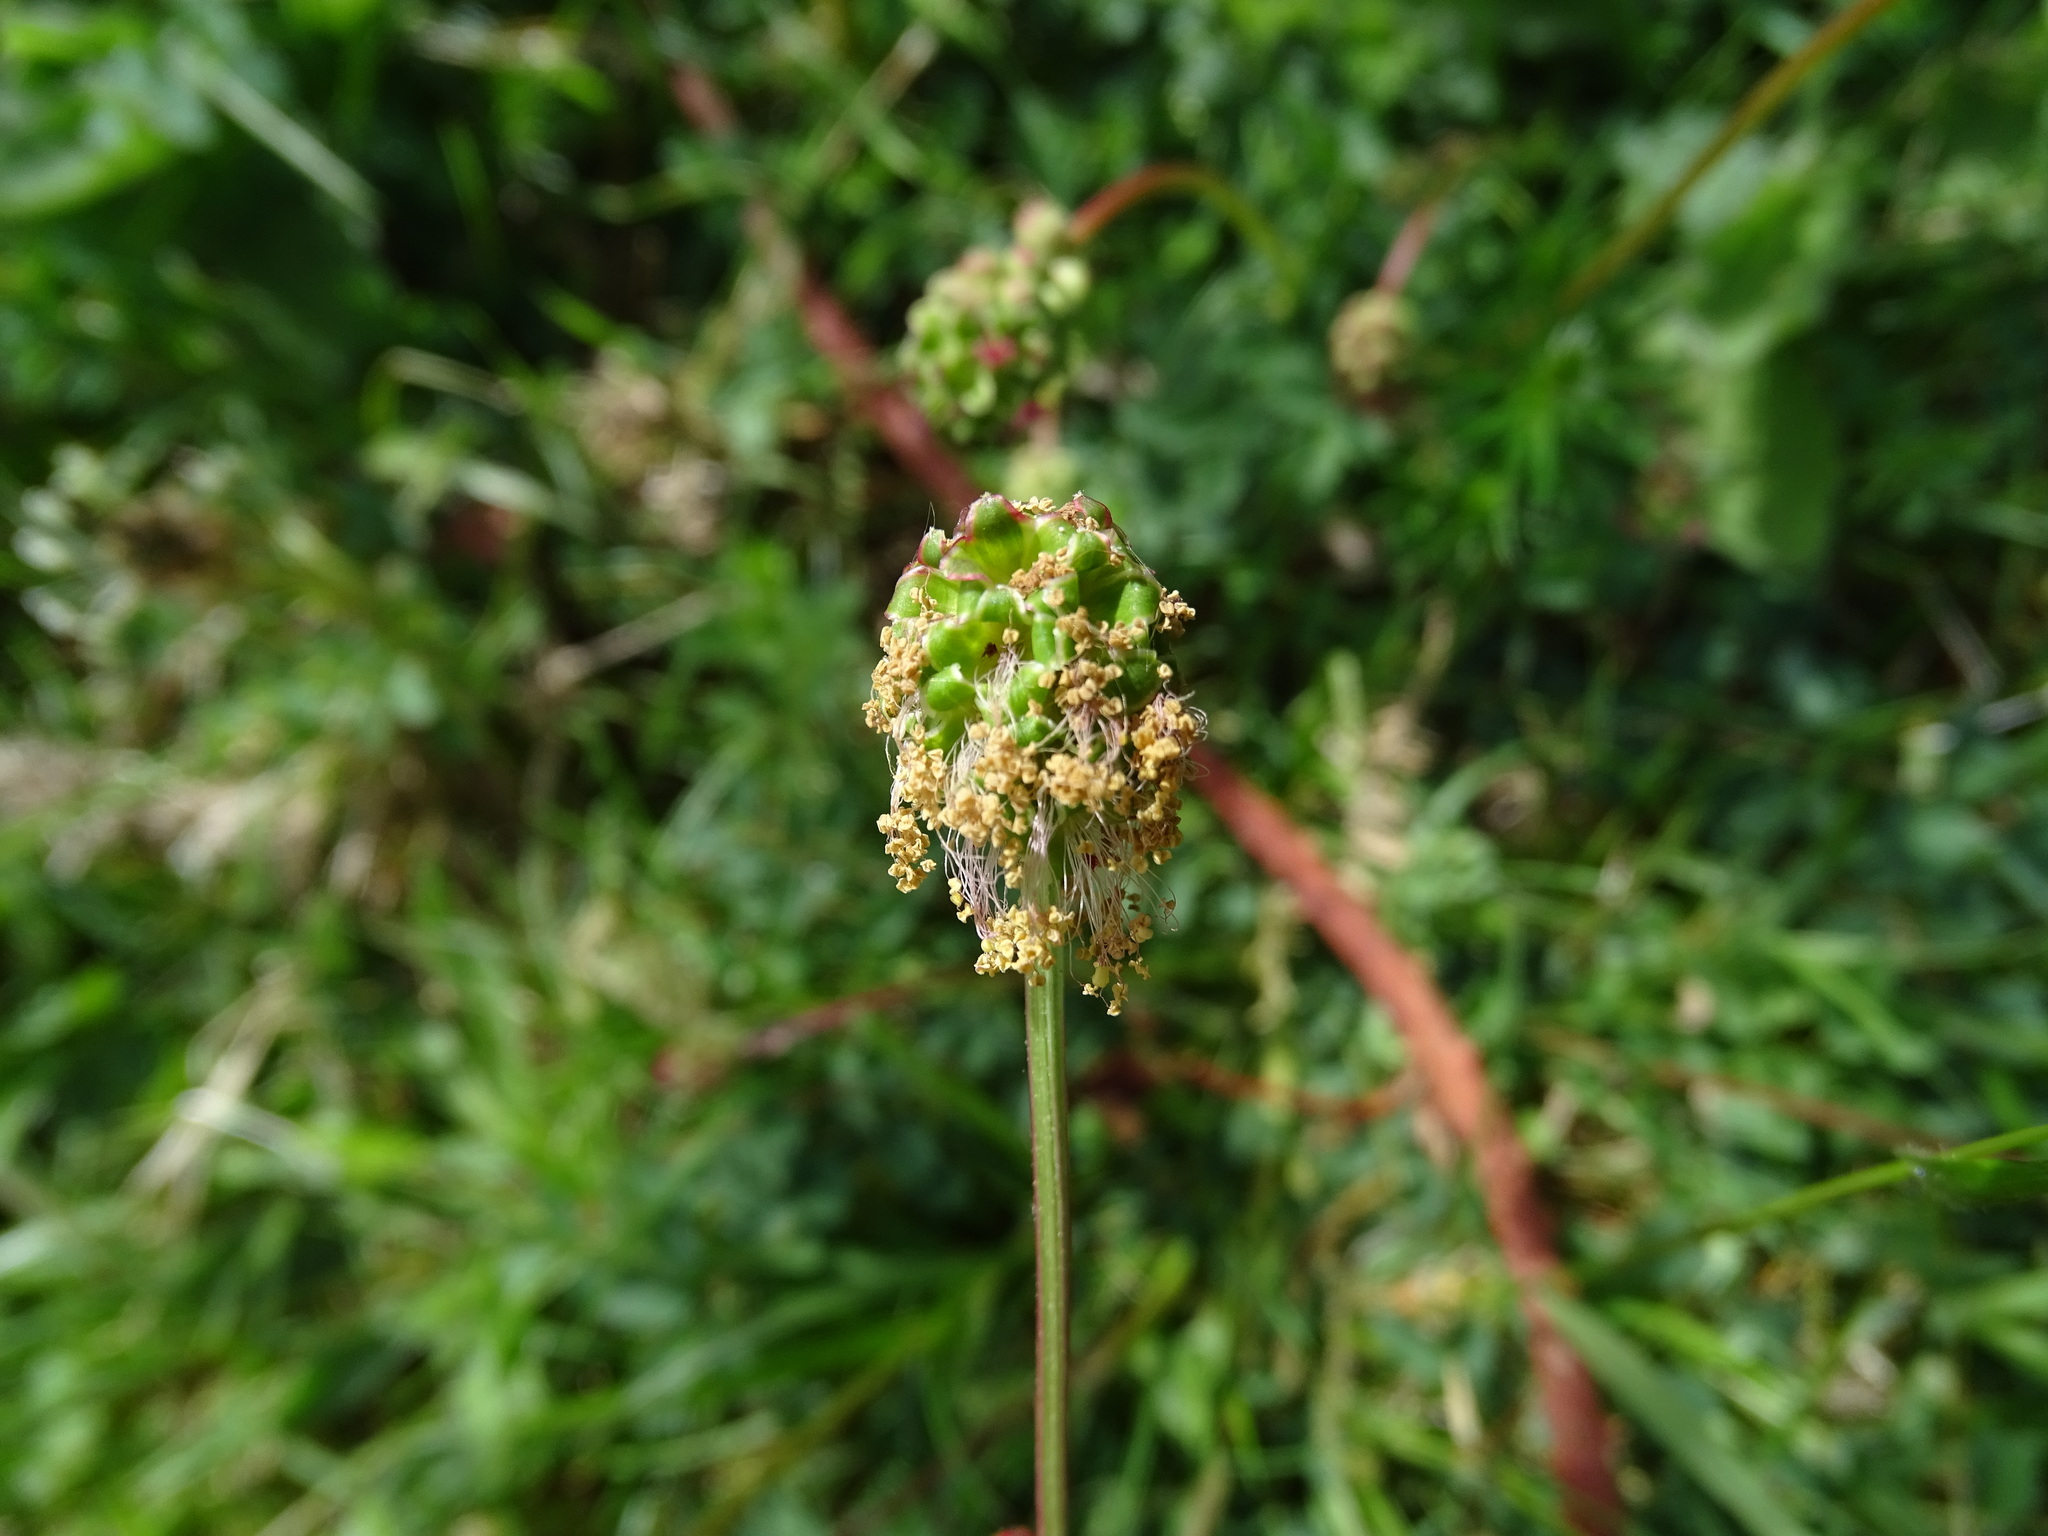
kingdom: Plantae
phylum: Tracheophyta
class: Magnoliopsida
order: Rosales
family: Rosaceae
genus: Poterium
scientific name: Poterium sanguisorba
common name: Salad burnet
